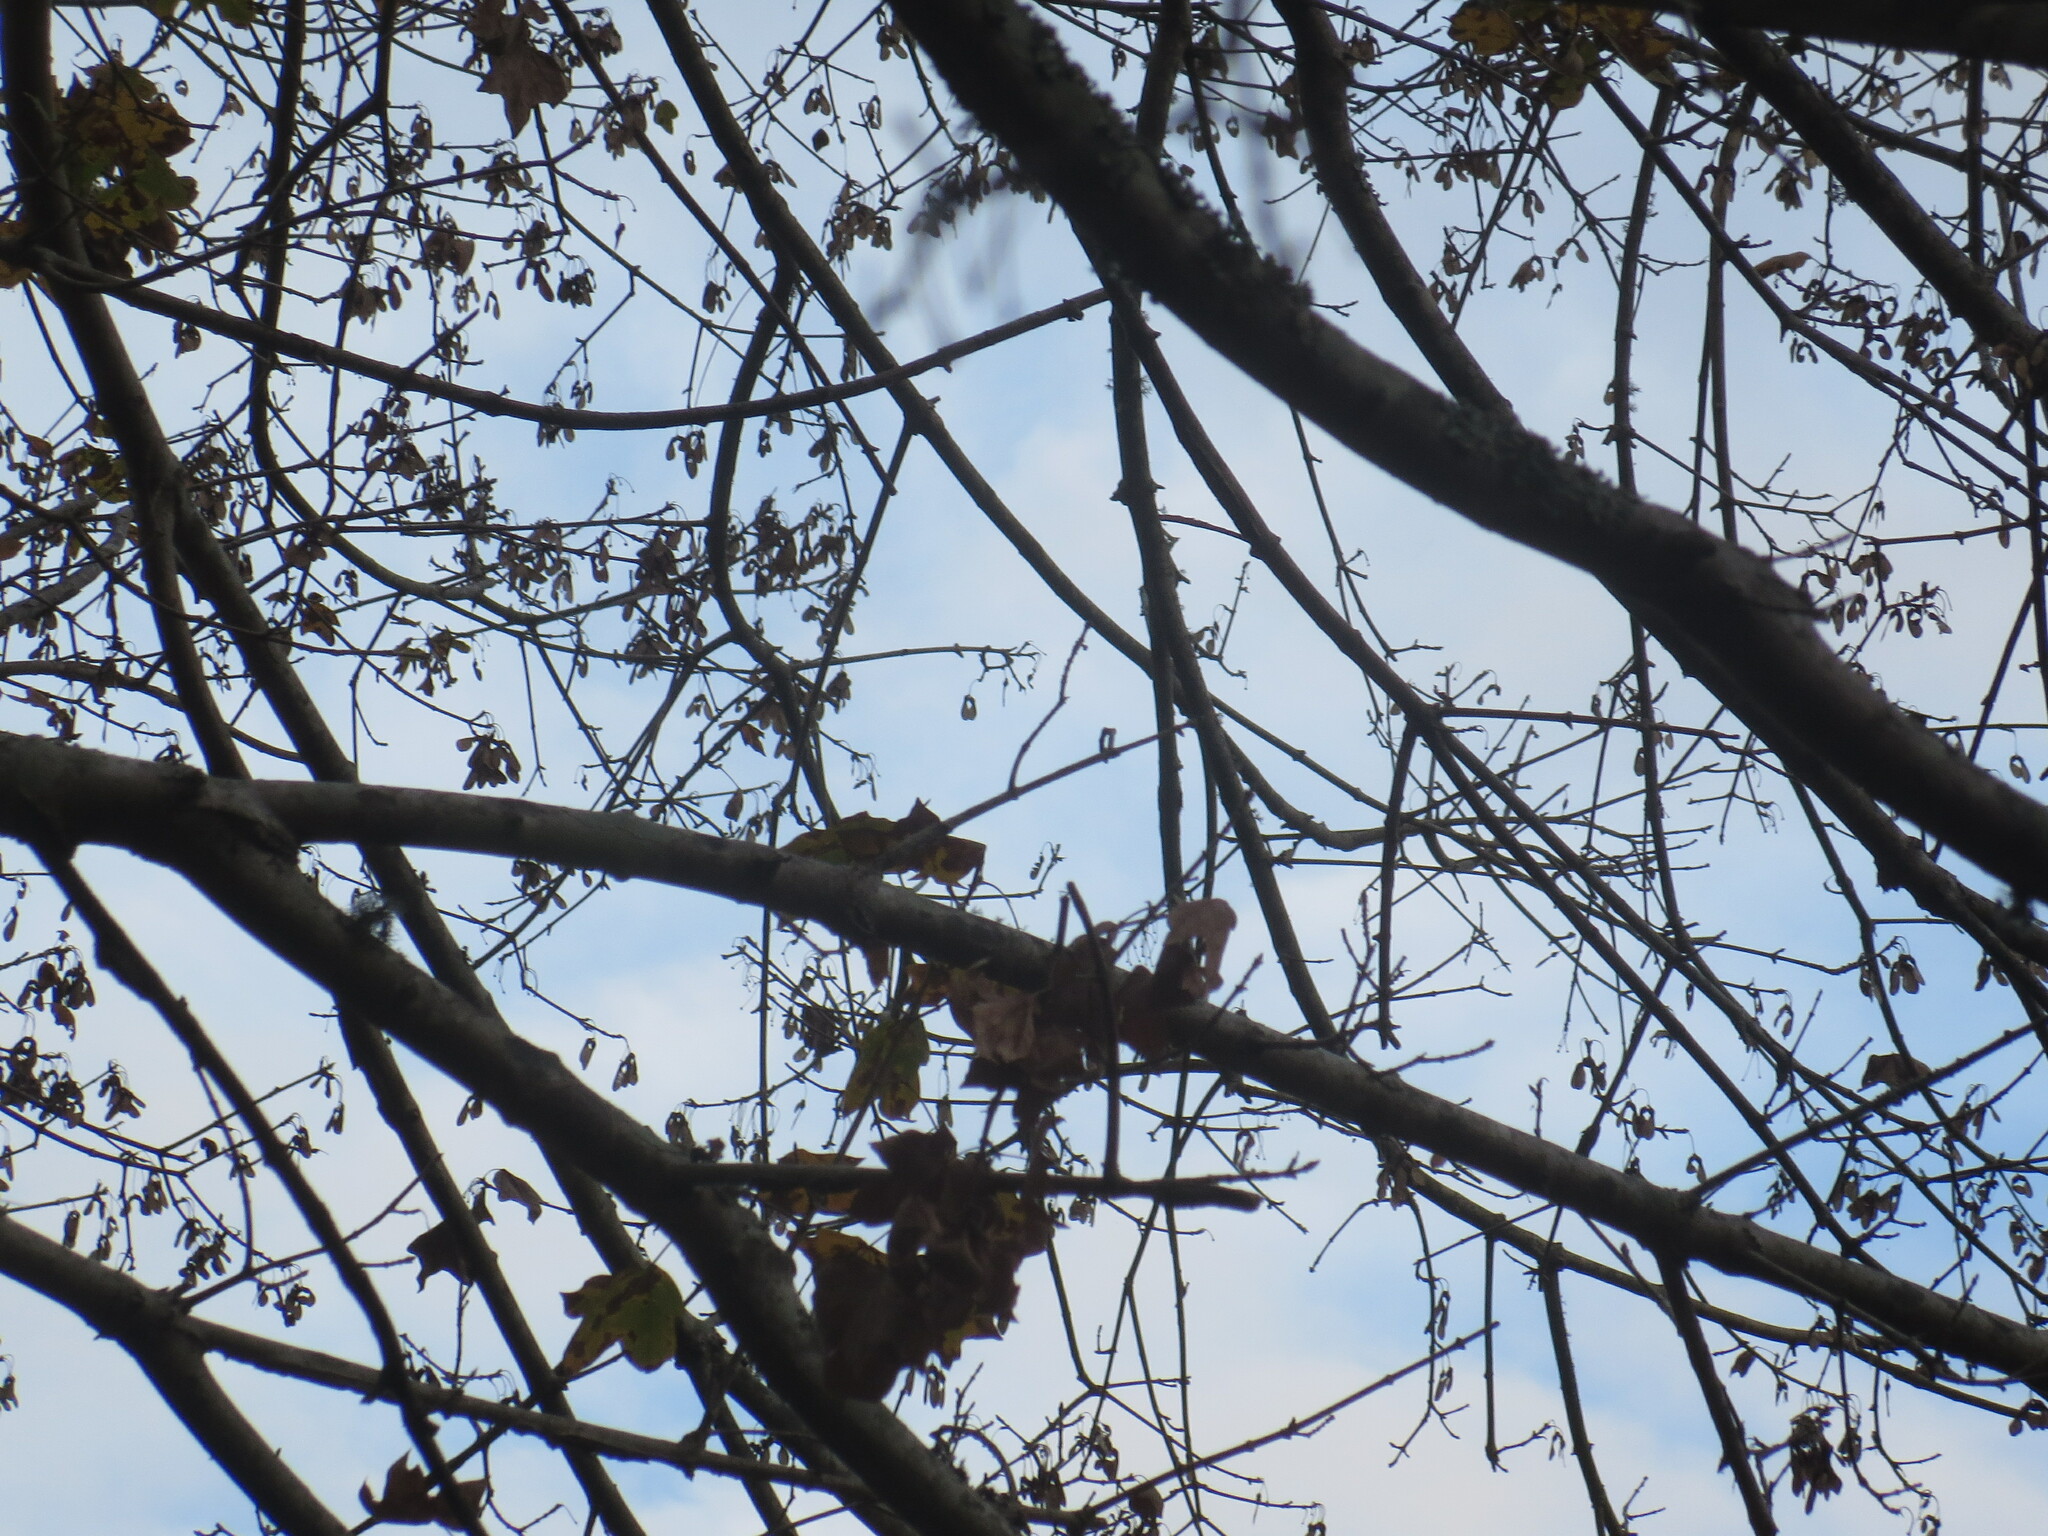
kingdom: Animalia
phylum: Chordata
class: Mammalia
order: Rodentia
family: Sciuridae
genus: Sciurus
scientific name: Sciurus carolinensis
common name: Eastern gray squirrel
